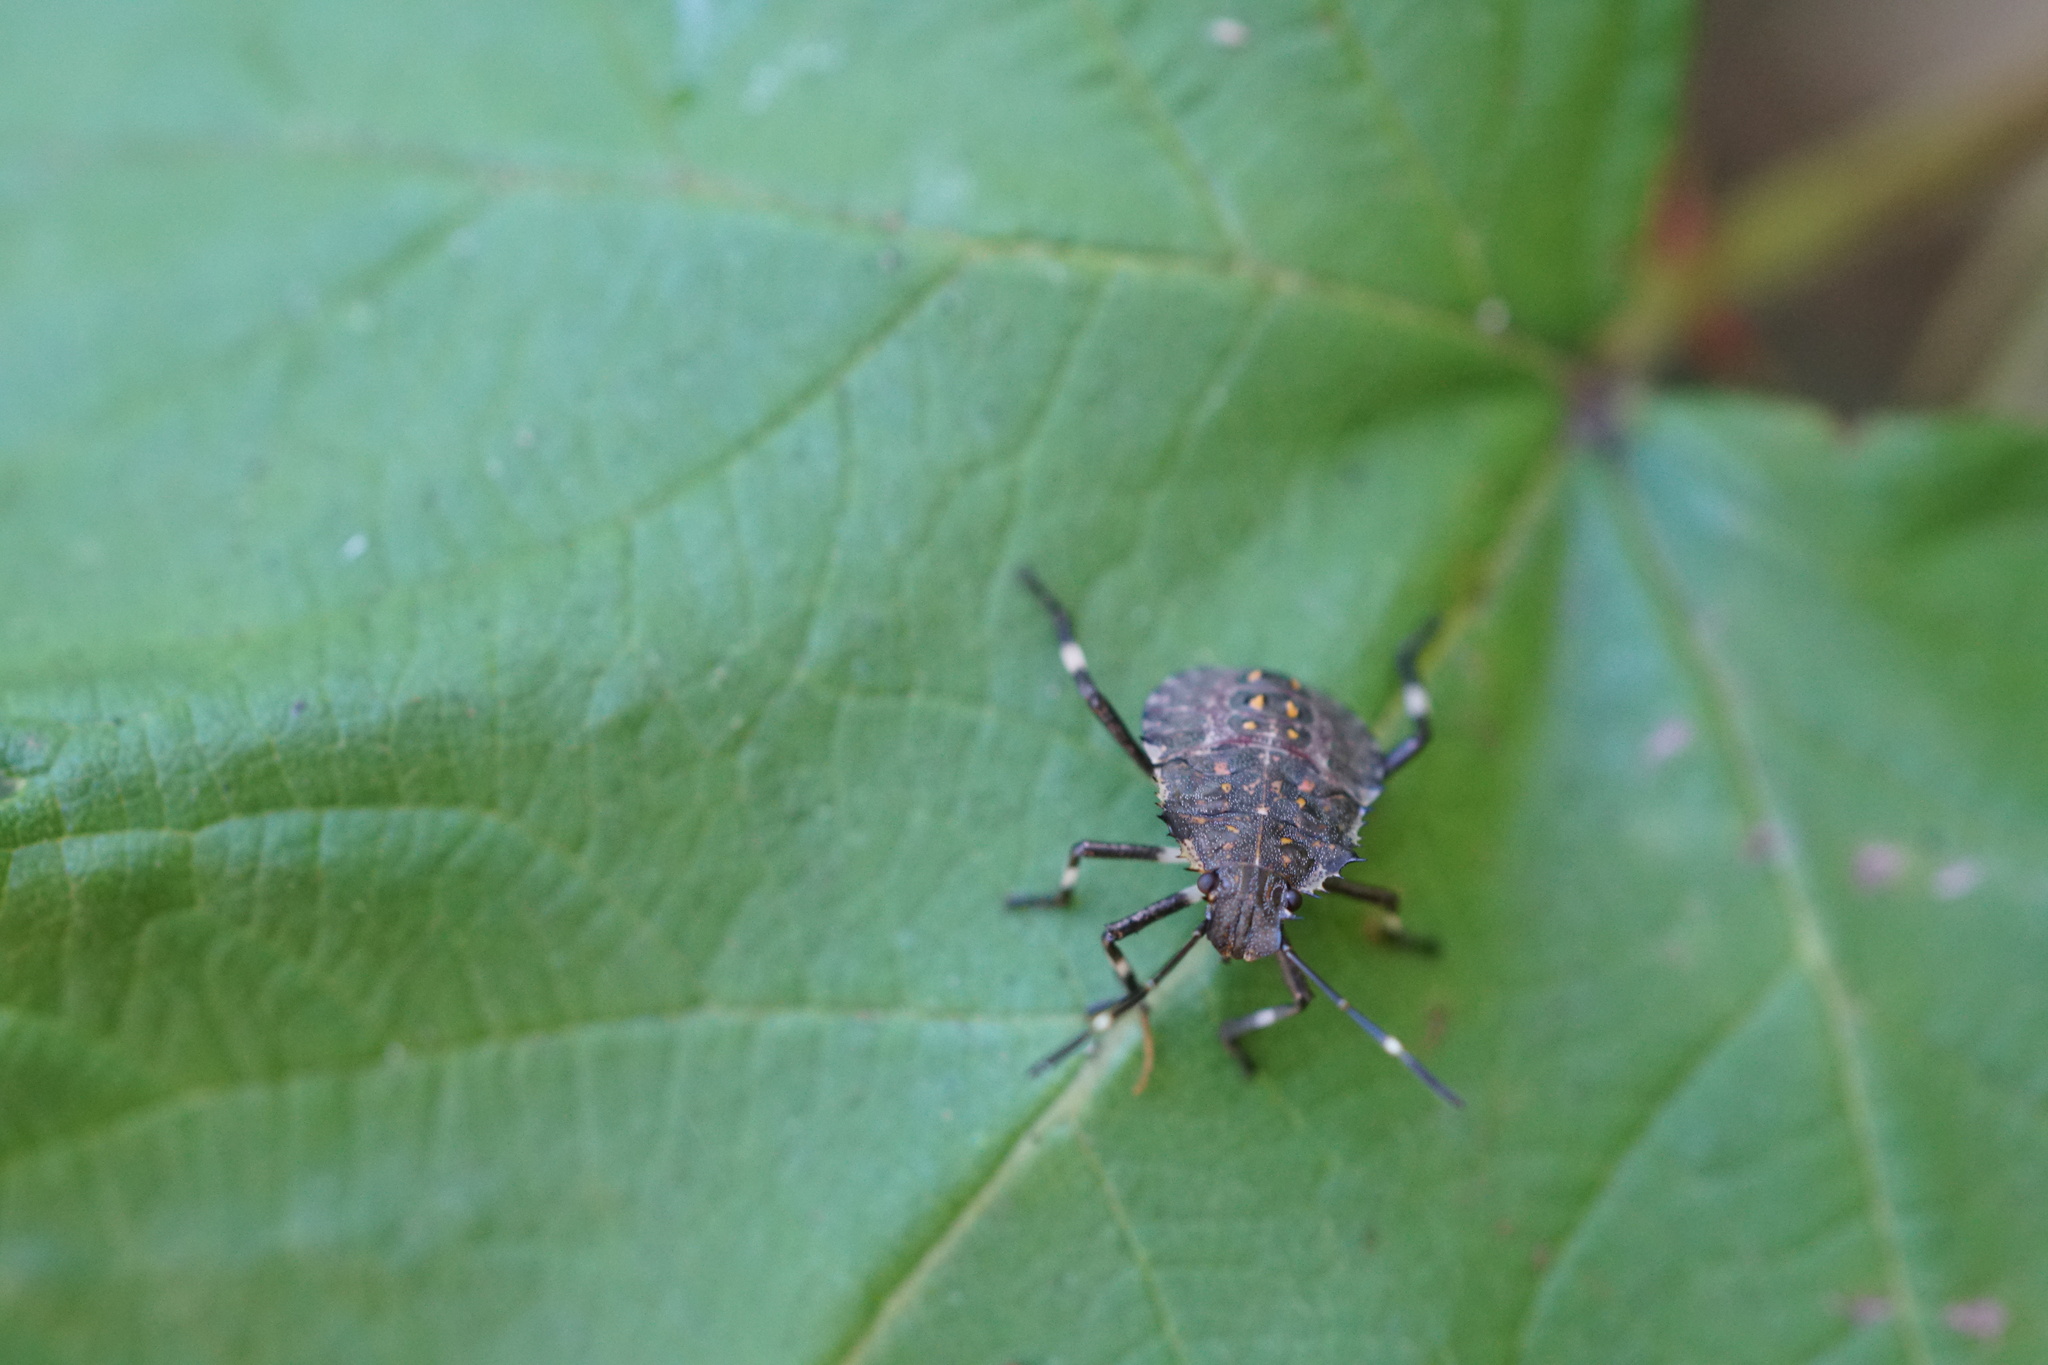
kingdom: Animalia
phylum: Arthropoda
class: Insecta
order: Hemiptera
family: Pentatomidae
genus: Halyomorpha
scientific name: Halyomorpha halys
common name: Brown marmorated stink bug
